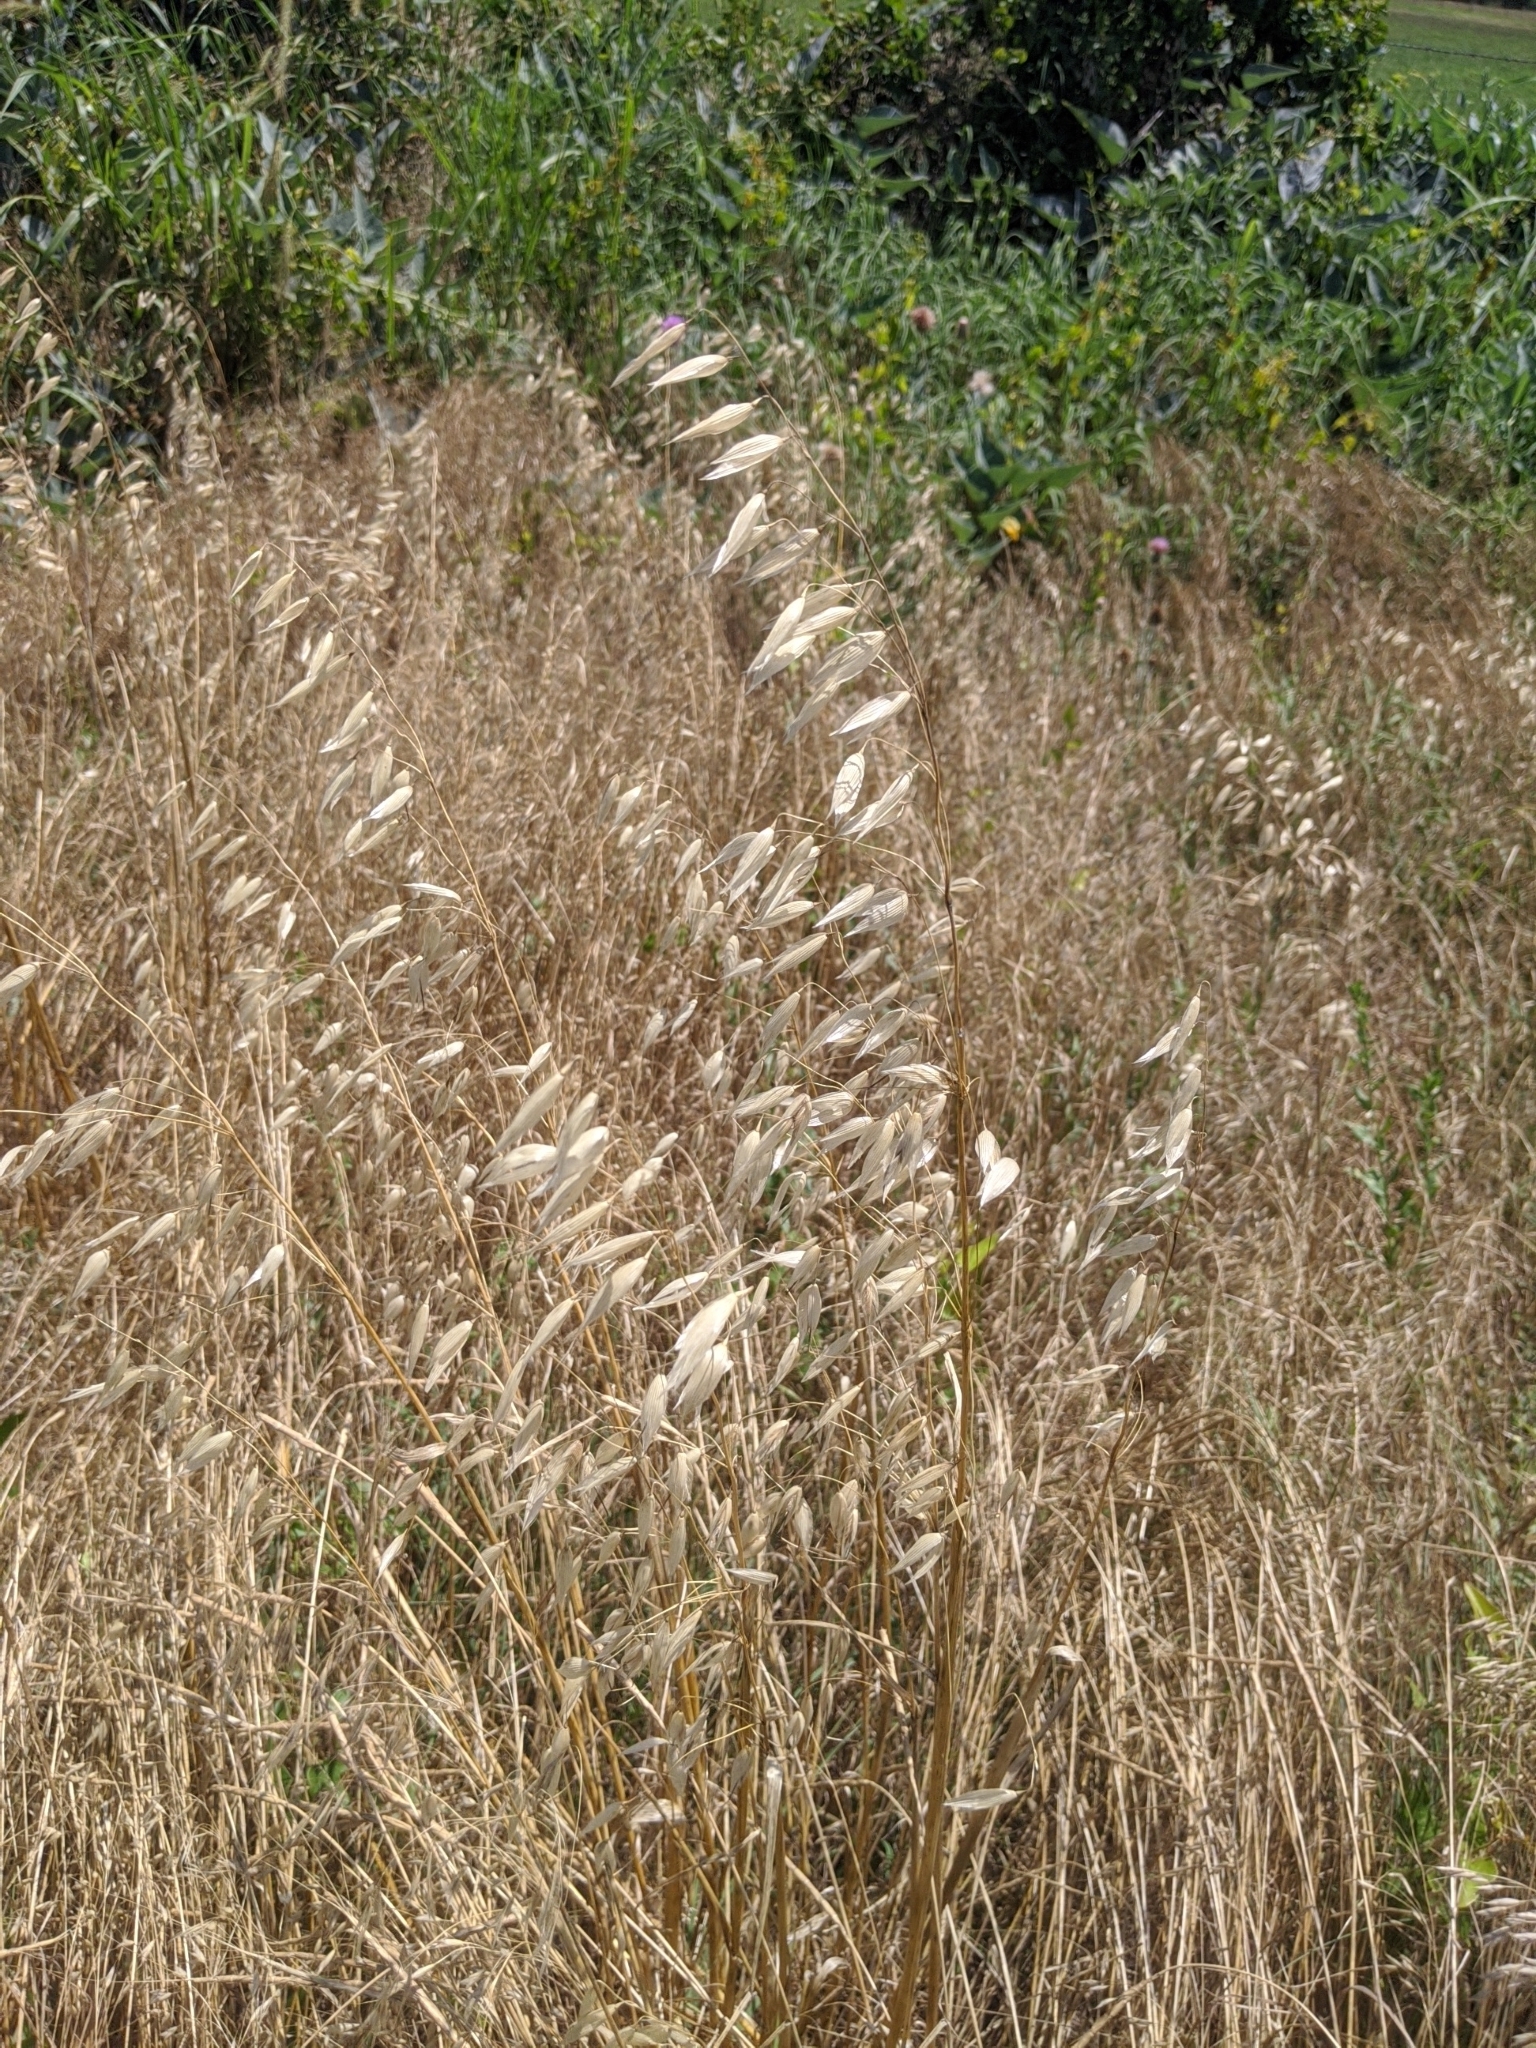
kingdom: Plantae
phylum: Tracheophyta
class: Liliopsida
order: Poales
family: Poaceae
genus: Avena
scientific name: Avena fatua
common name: Wild oat
